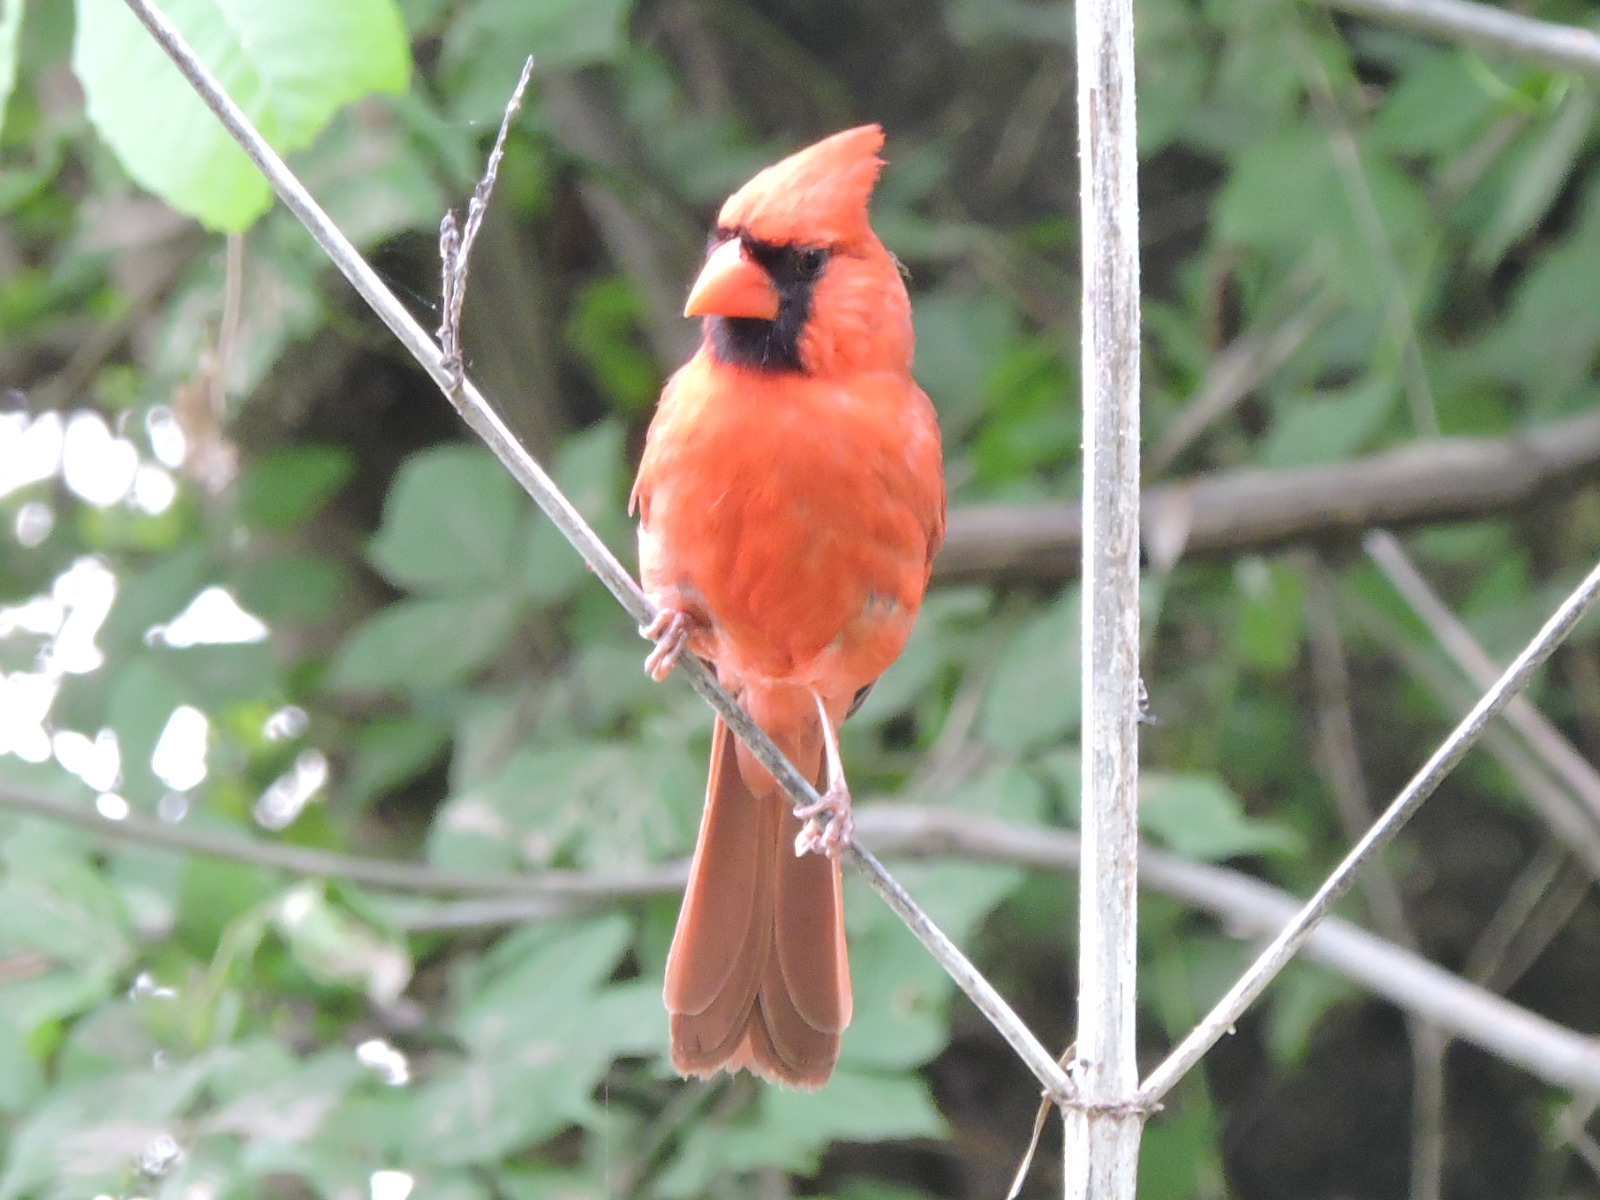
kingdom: Animalia
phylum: Chordata
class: Aves
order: Passeriformes
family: Cardinalidae
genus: Cardinalis
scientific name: Cardinalis cardinalis
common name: Northern cardinal
